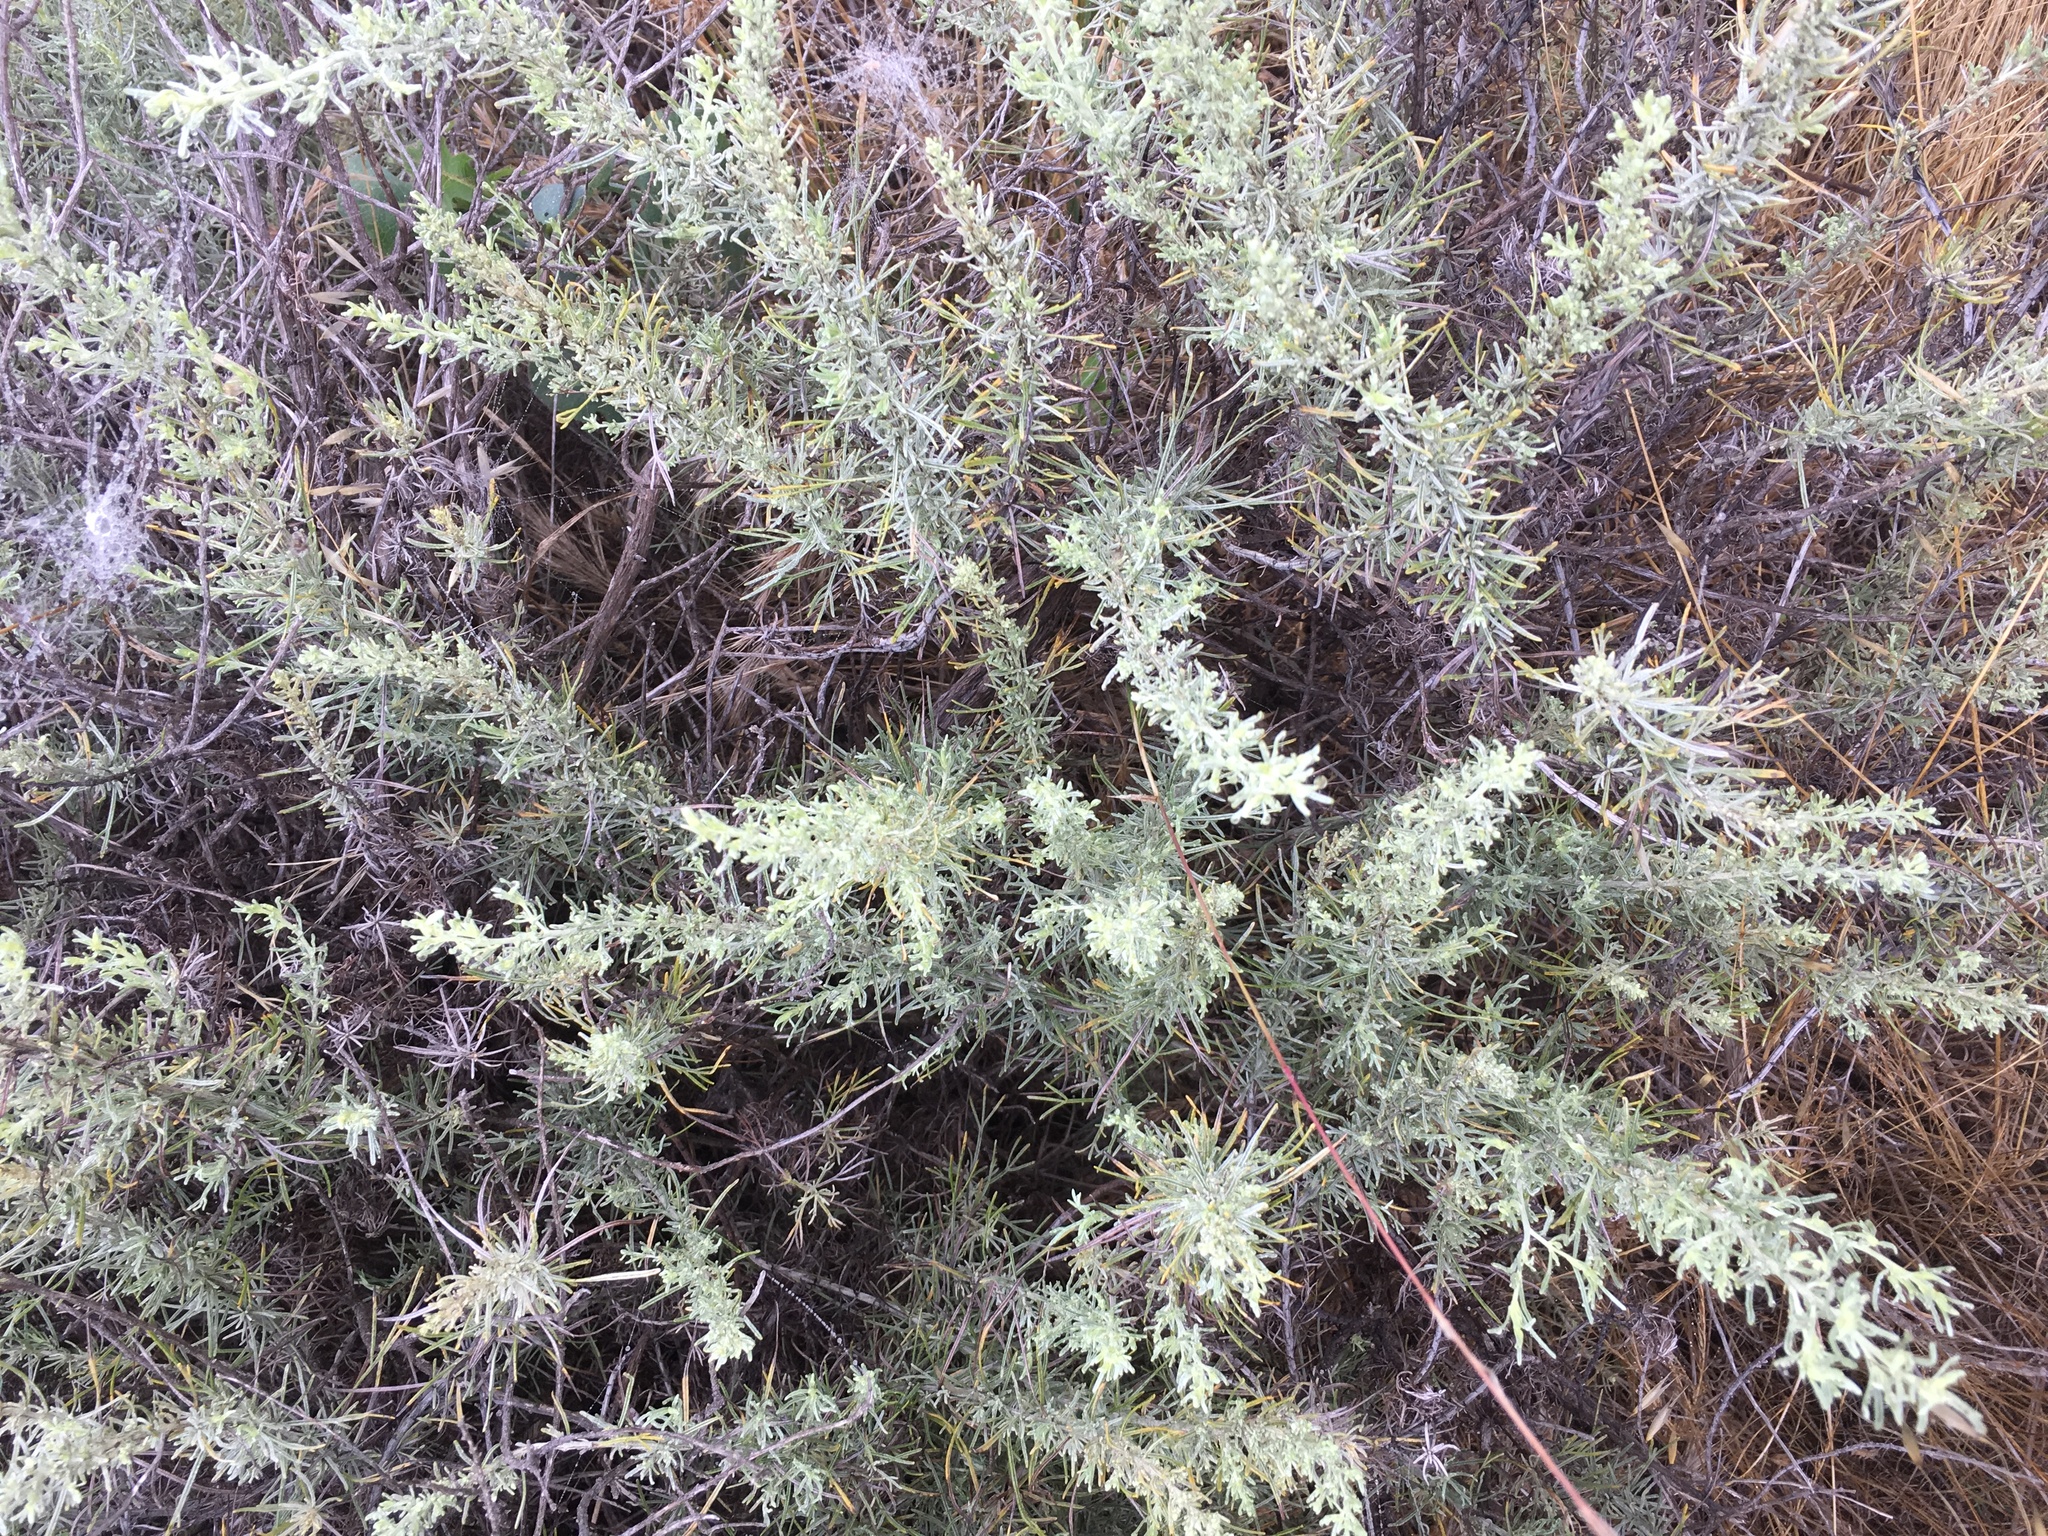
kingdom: Plantae
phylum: Tracheophyta
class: Magnoliopsida
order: Asterales
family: Asteraceae
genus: Artemisia
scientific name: Artemisia californica
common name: California sagebrush
